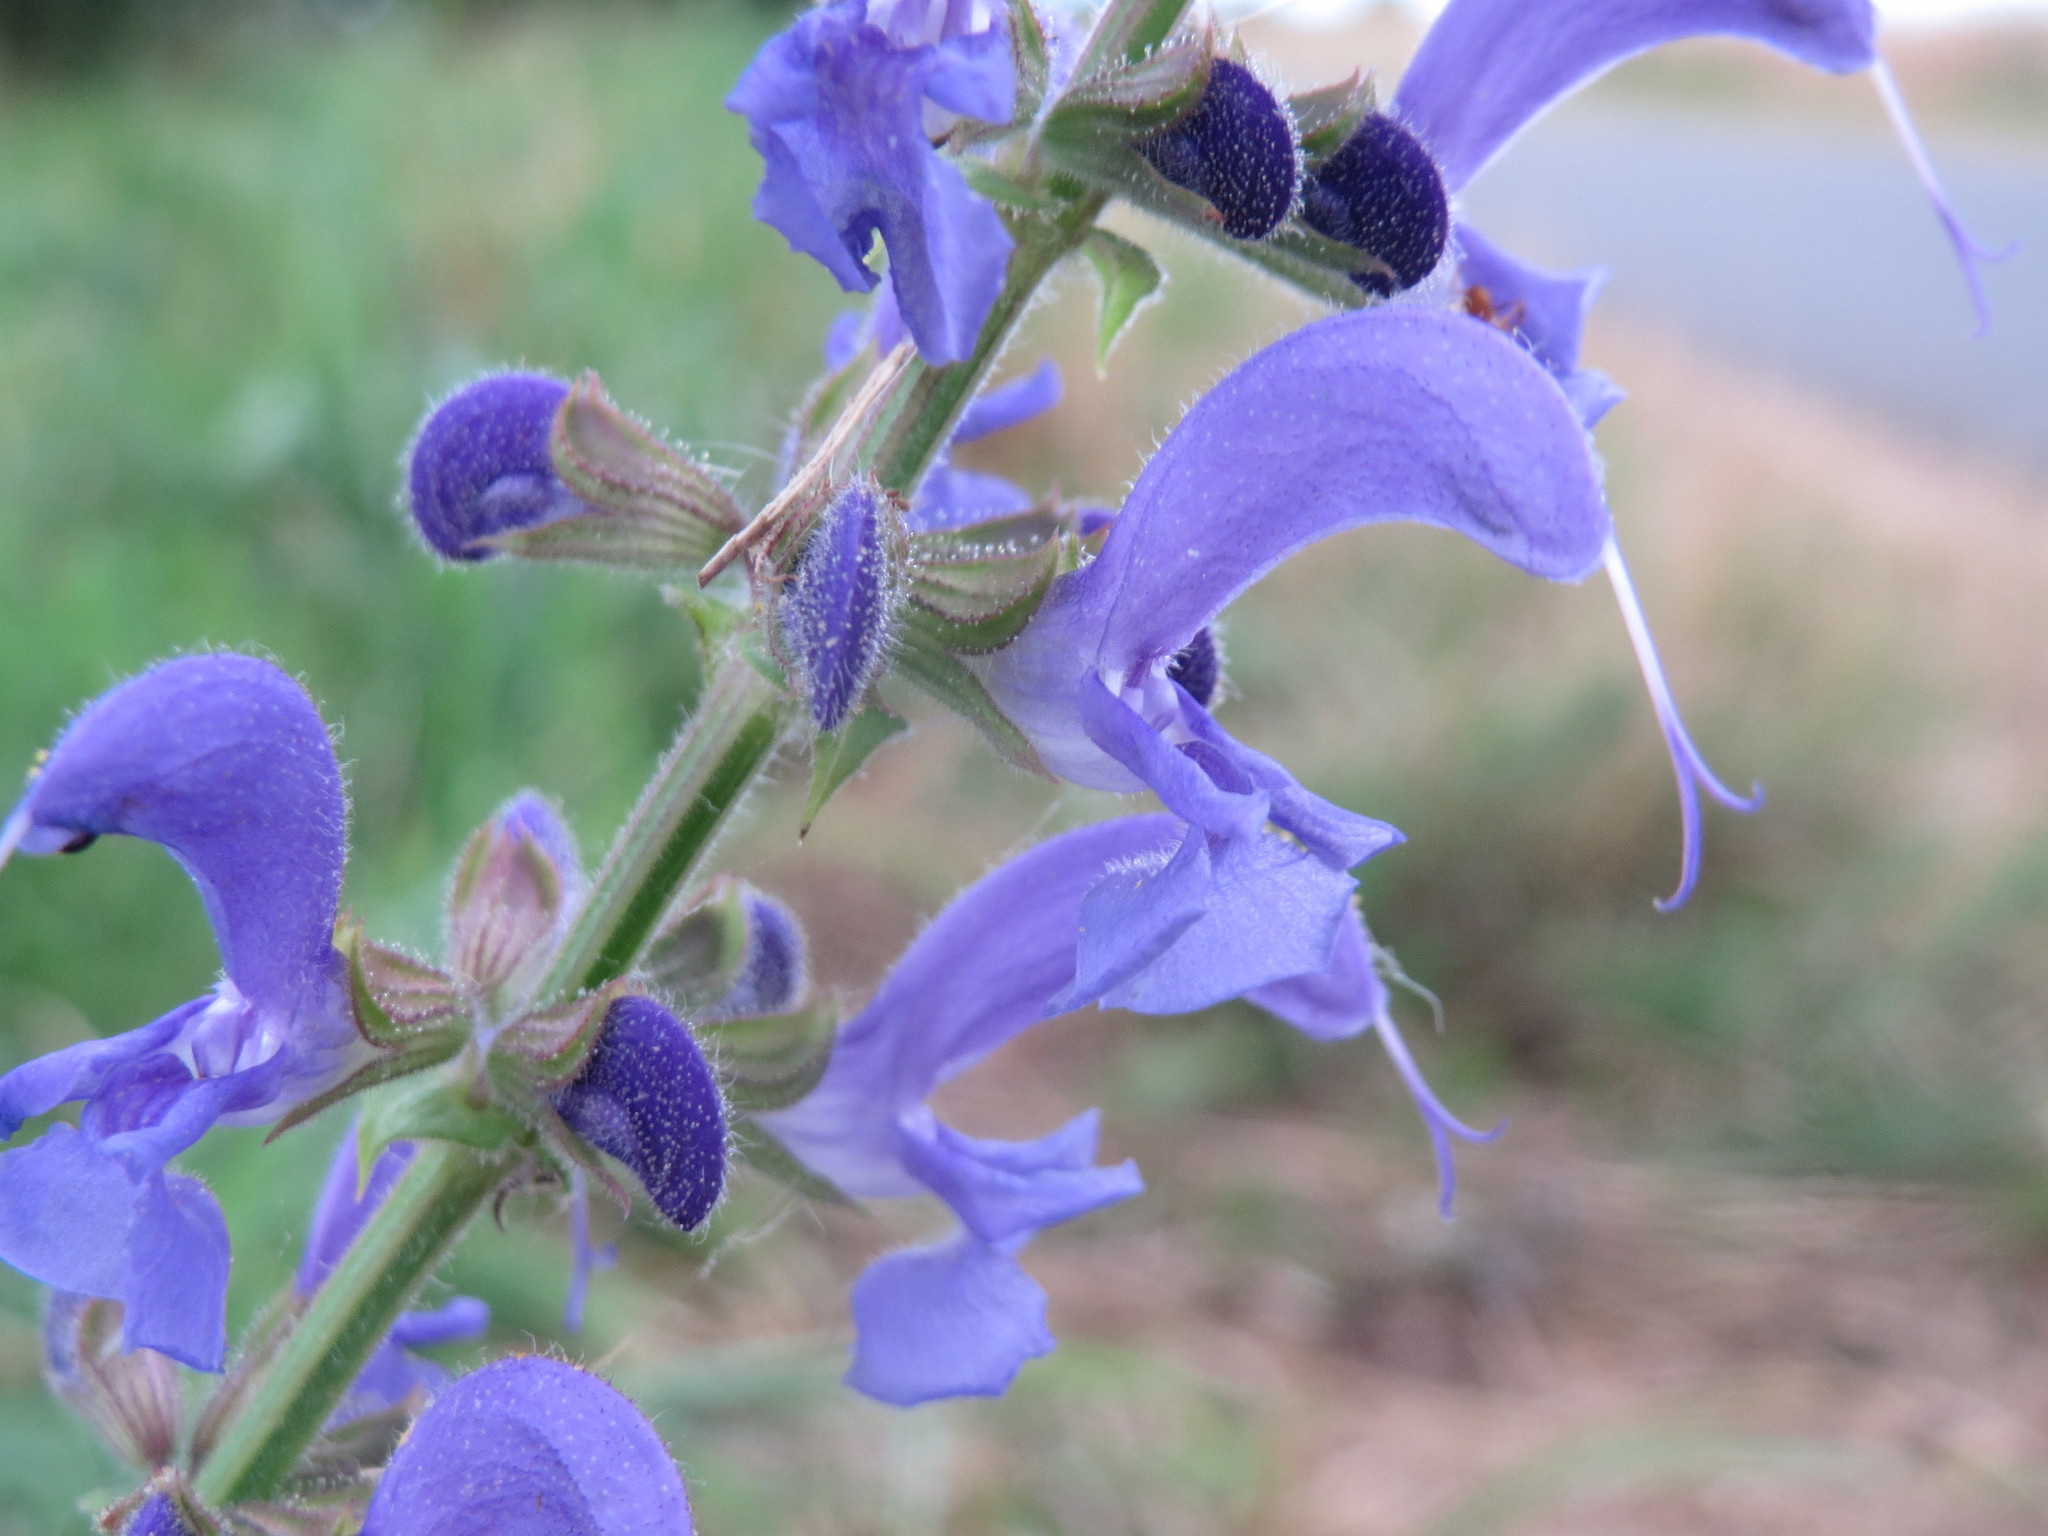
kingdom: Plantae
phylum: Tracheophyta
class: Magnoliopsida
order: Lamiales
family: Lamiaceae
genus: Salvia
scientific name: Salvia pratensis
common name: Meadow sage
